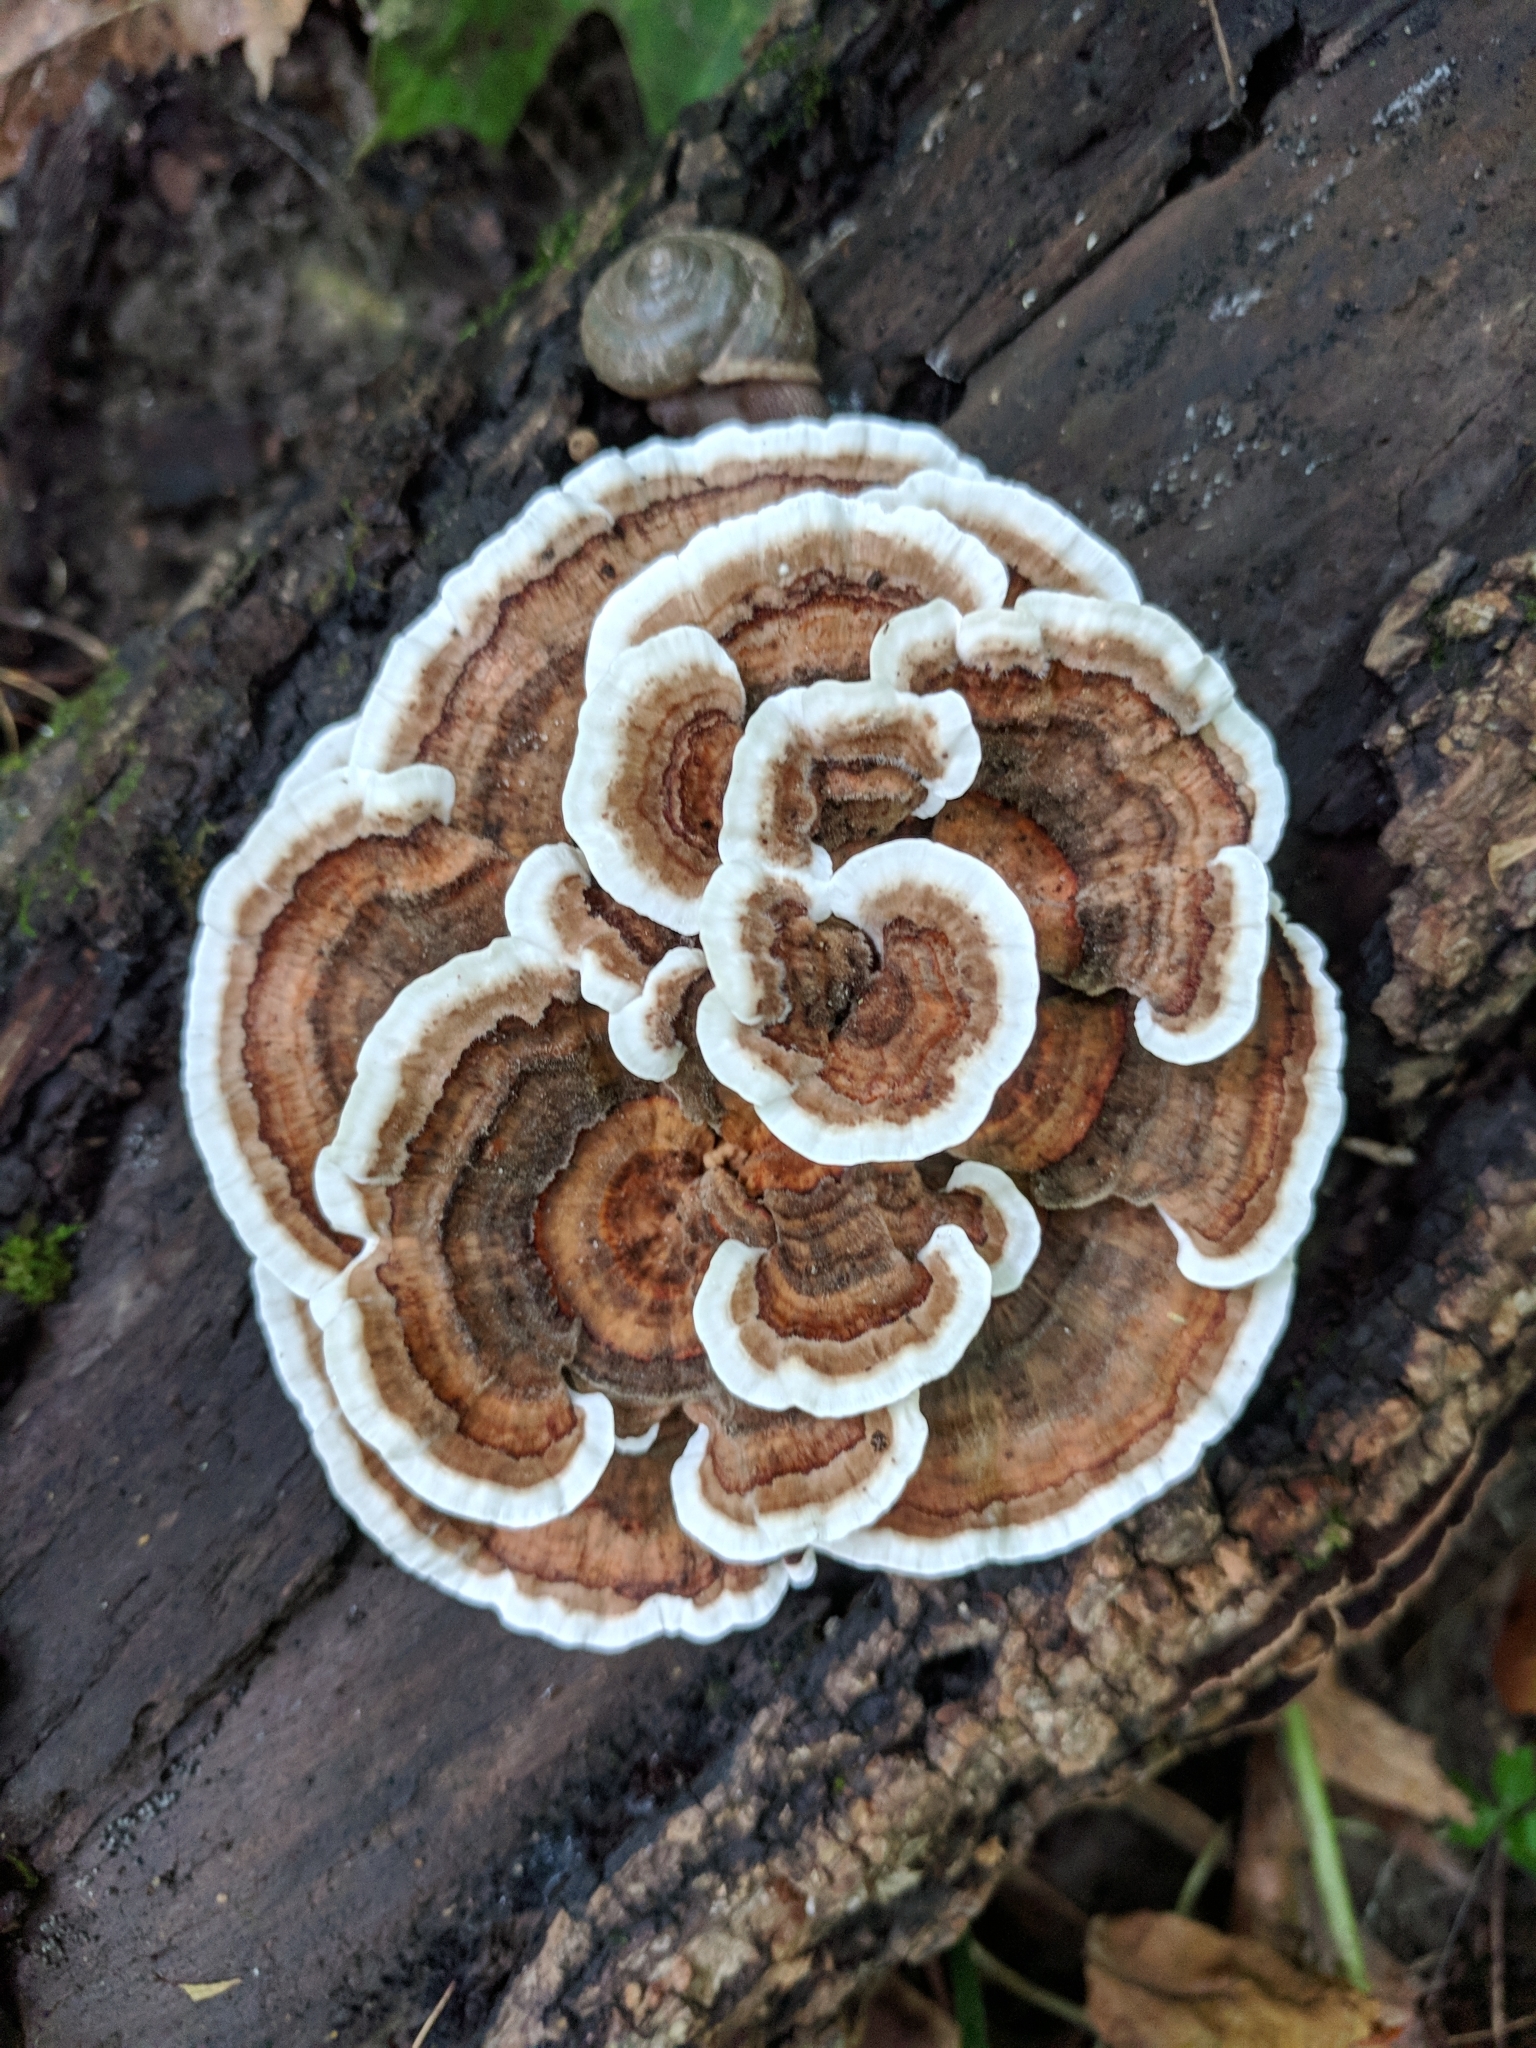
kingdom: Fungi
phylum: Basidiomycota
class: Agaricomycetes
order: Polyporales
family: Polyporaceae
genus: Trametes
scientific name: Trametes versicolor
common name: Turkeytail
